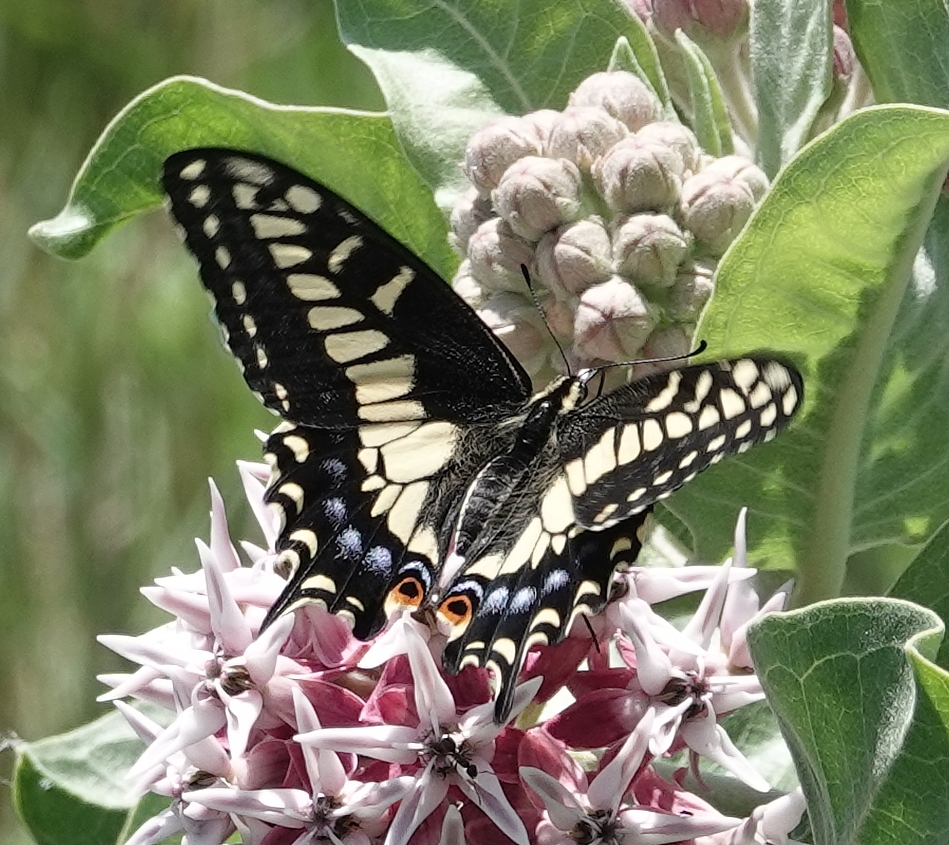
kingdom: Animalia
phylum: Arthropoda
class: Insecta
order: Lepidoptera
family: Papilionidae
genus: Papilio
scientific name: Papilio zelicaon
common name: Anise swallowtail
